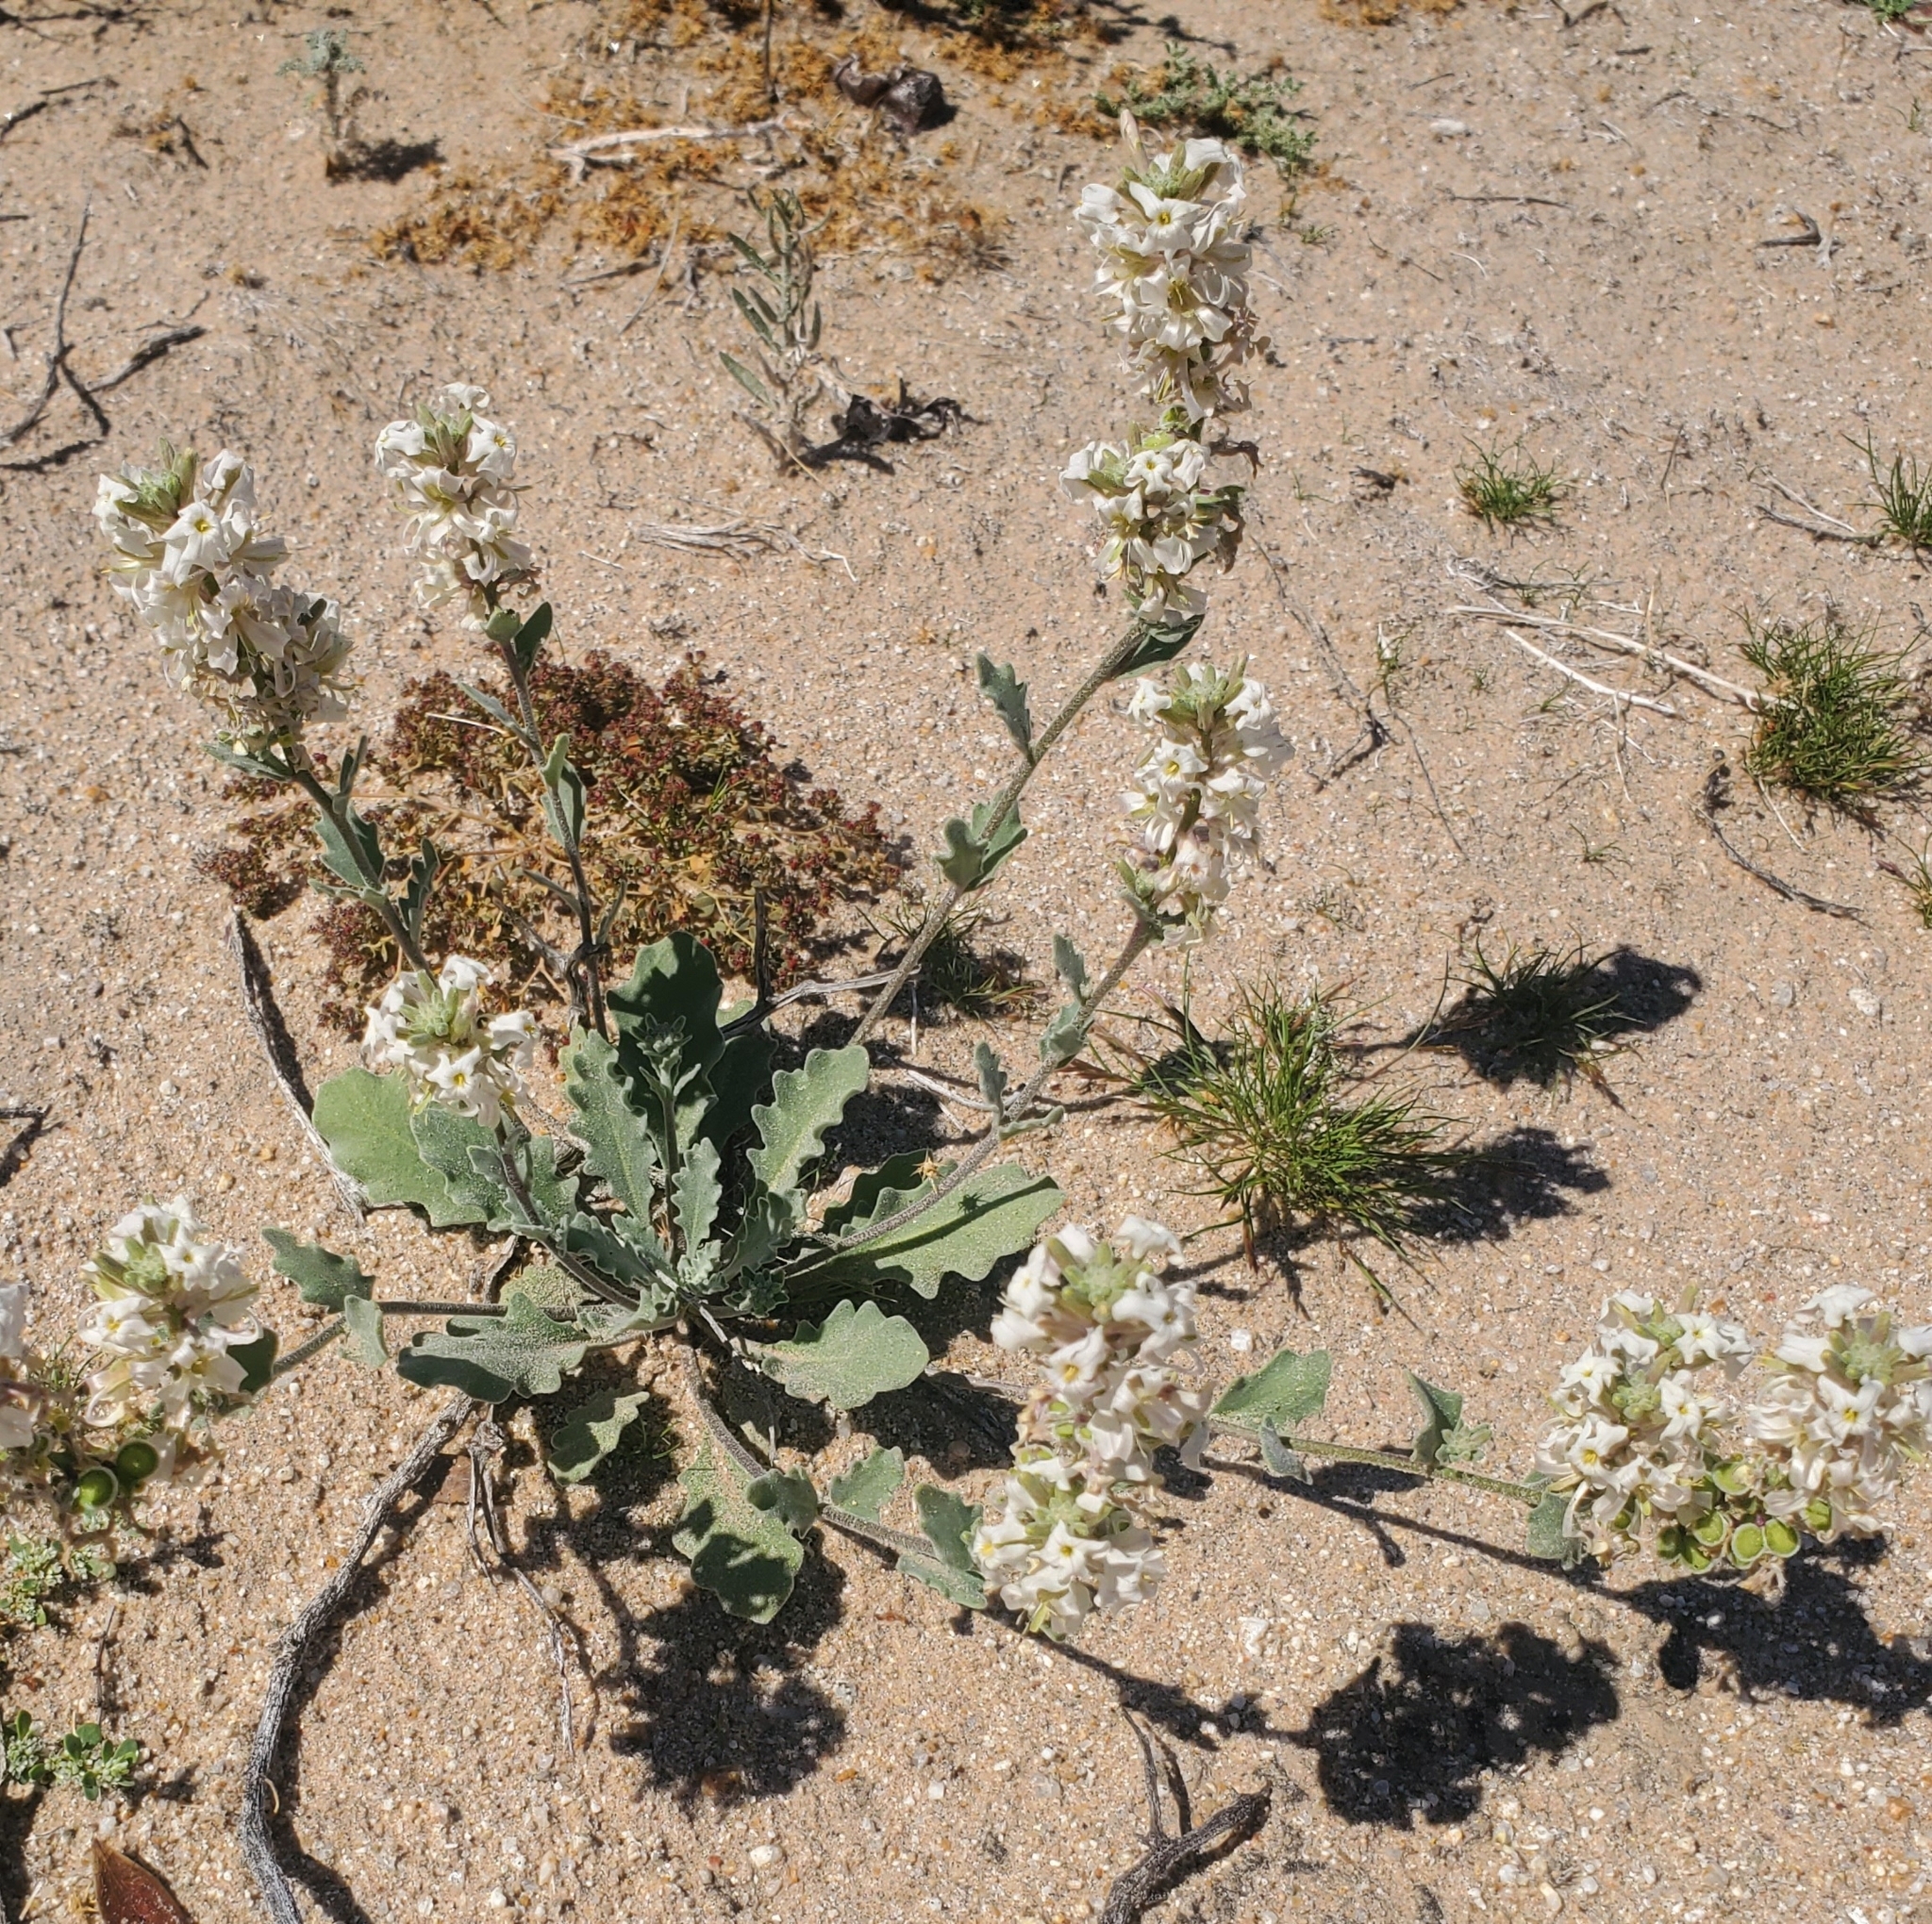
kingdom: Plantae
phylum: Tracheophyta
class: Magnoliopsida
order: Brassicales
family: Brassicaceae
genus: Dithyrea
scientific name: Dithyrea californica
